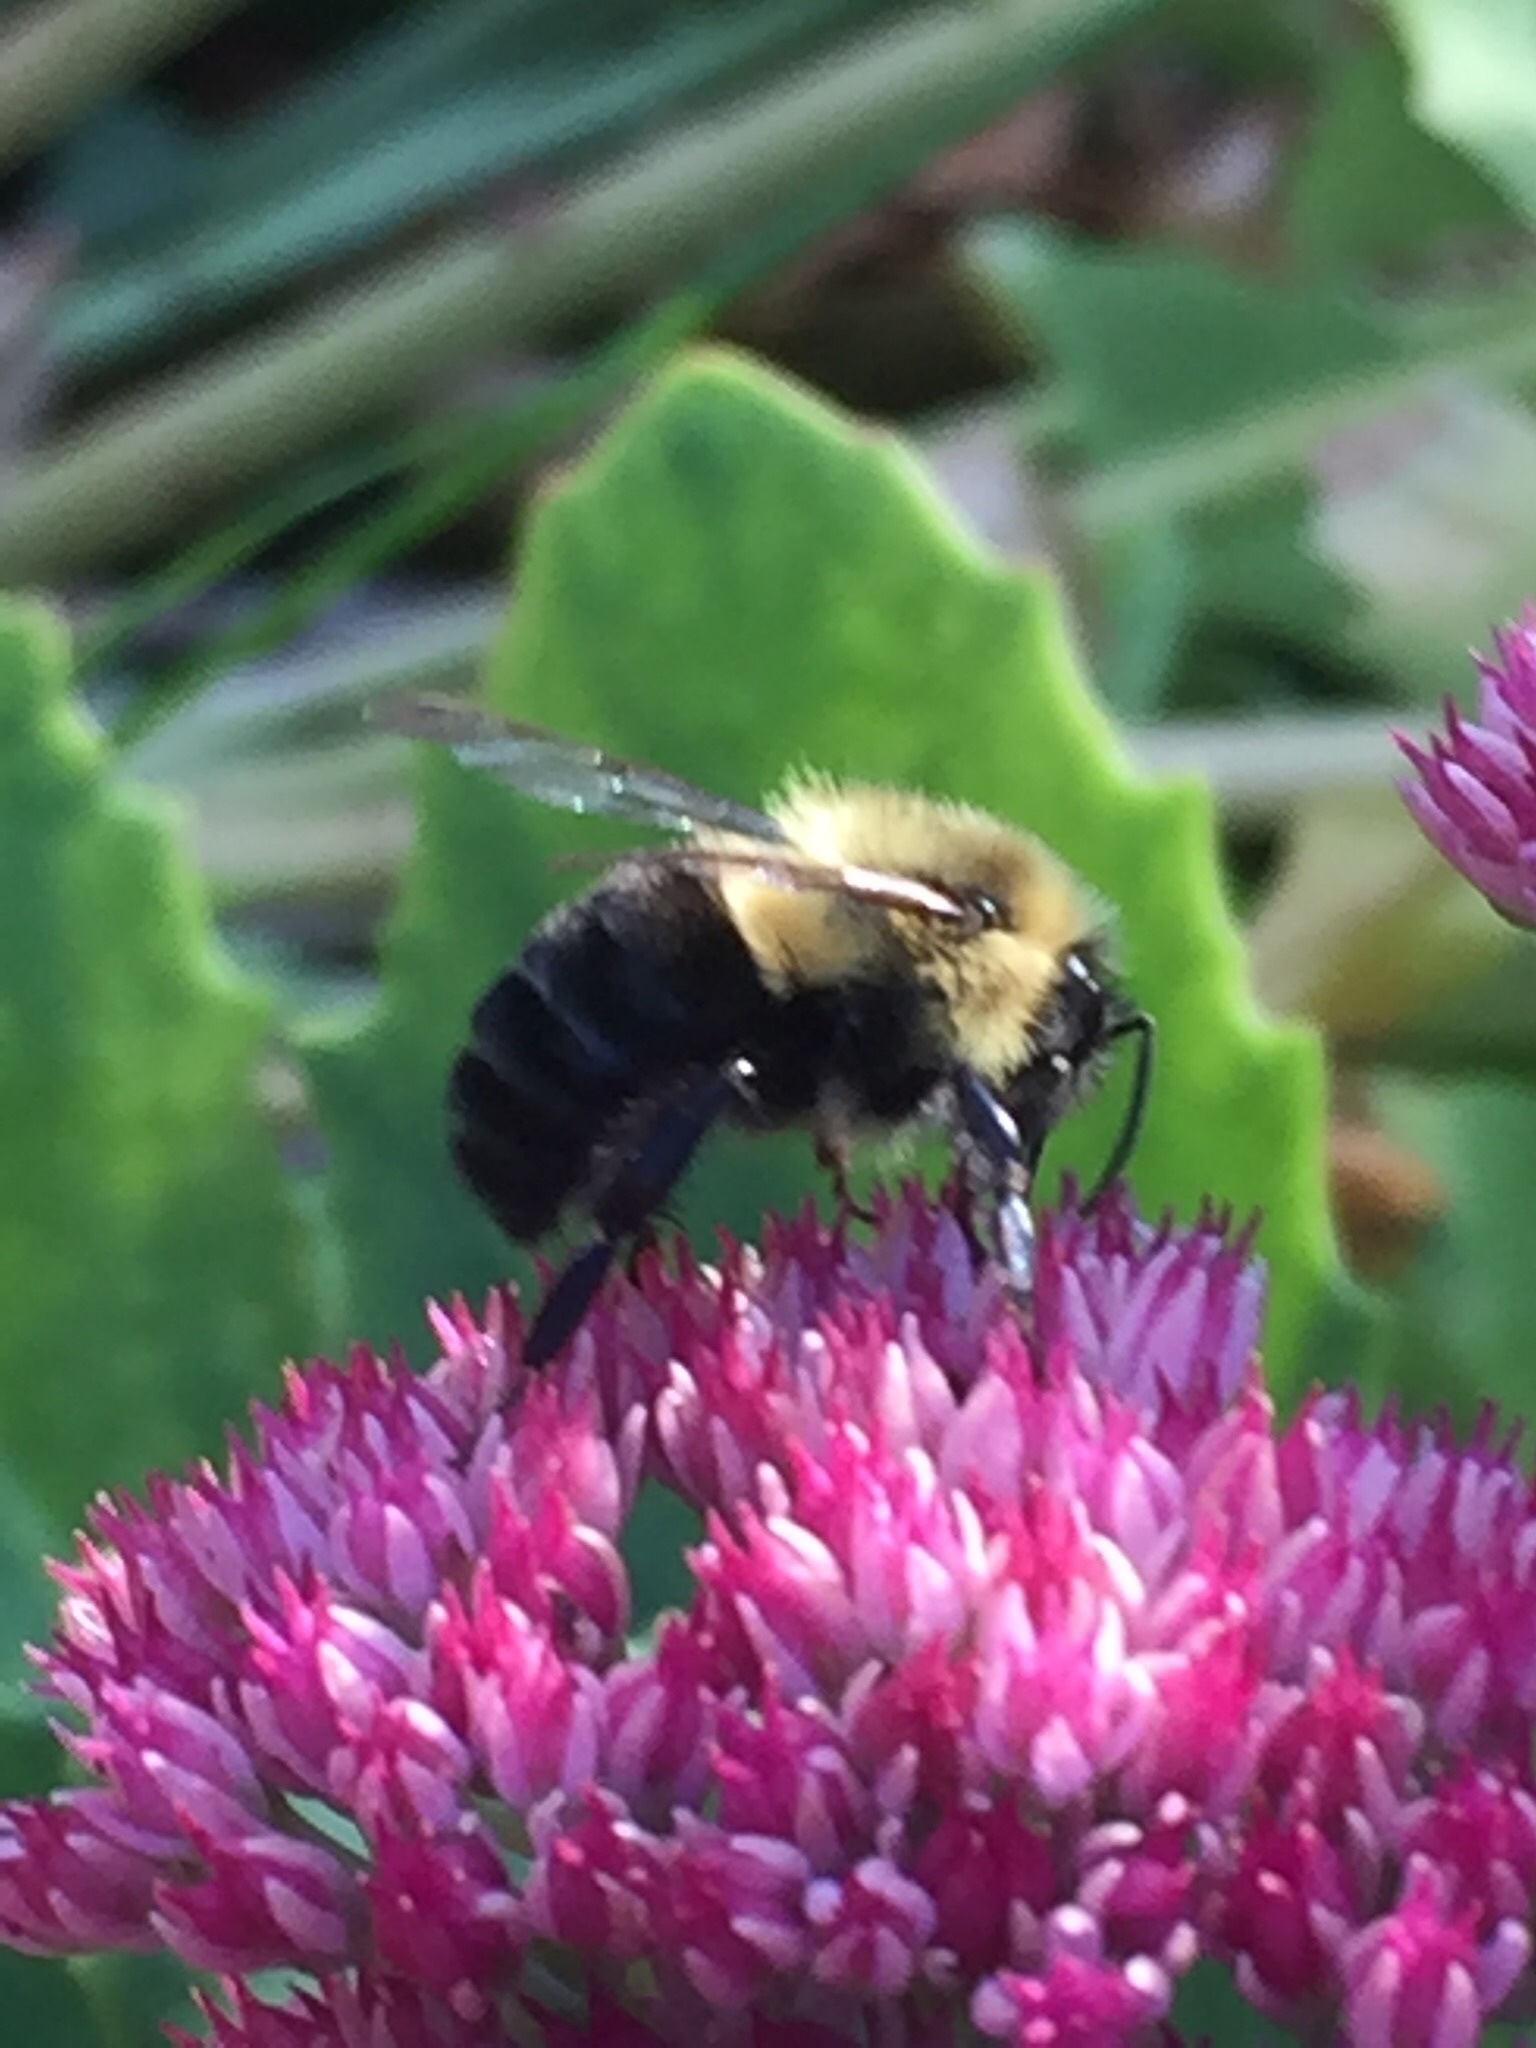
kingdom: Animalia
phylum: Arthropoda
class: Insecta
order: Hymenoptera
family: Apidae
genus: Bombus
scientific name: Bombus impatiens
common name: Common eastern bumble bee
